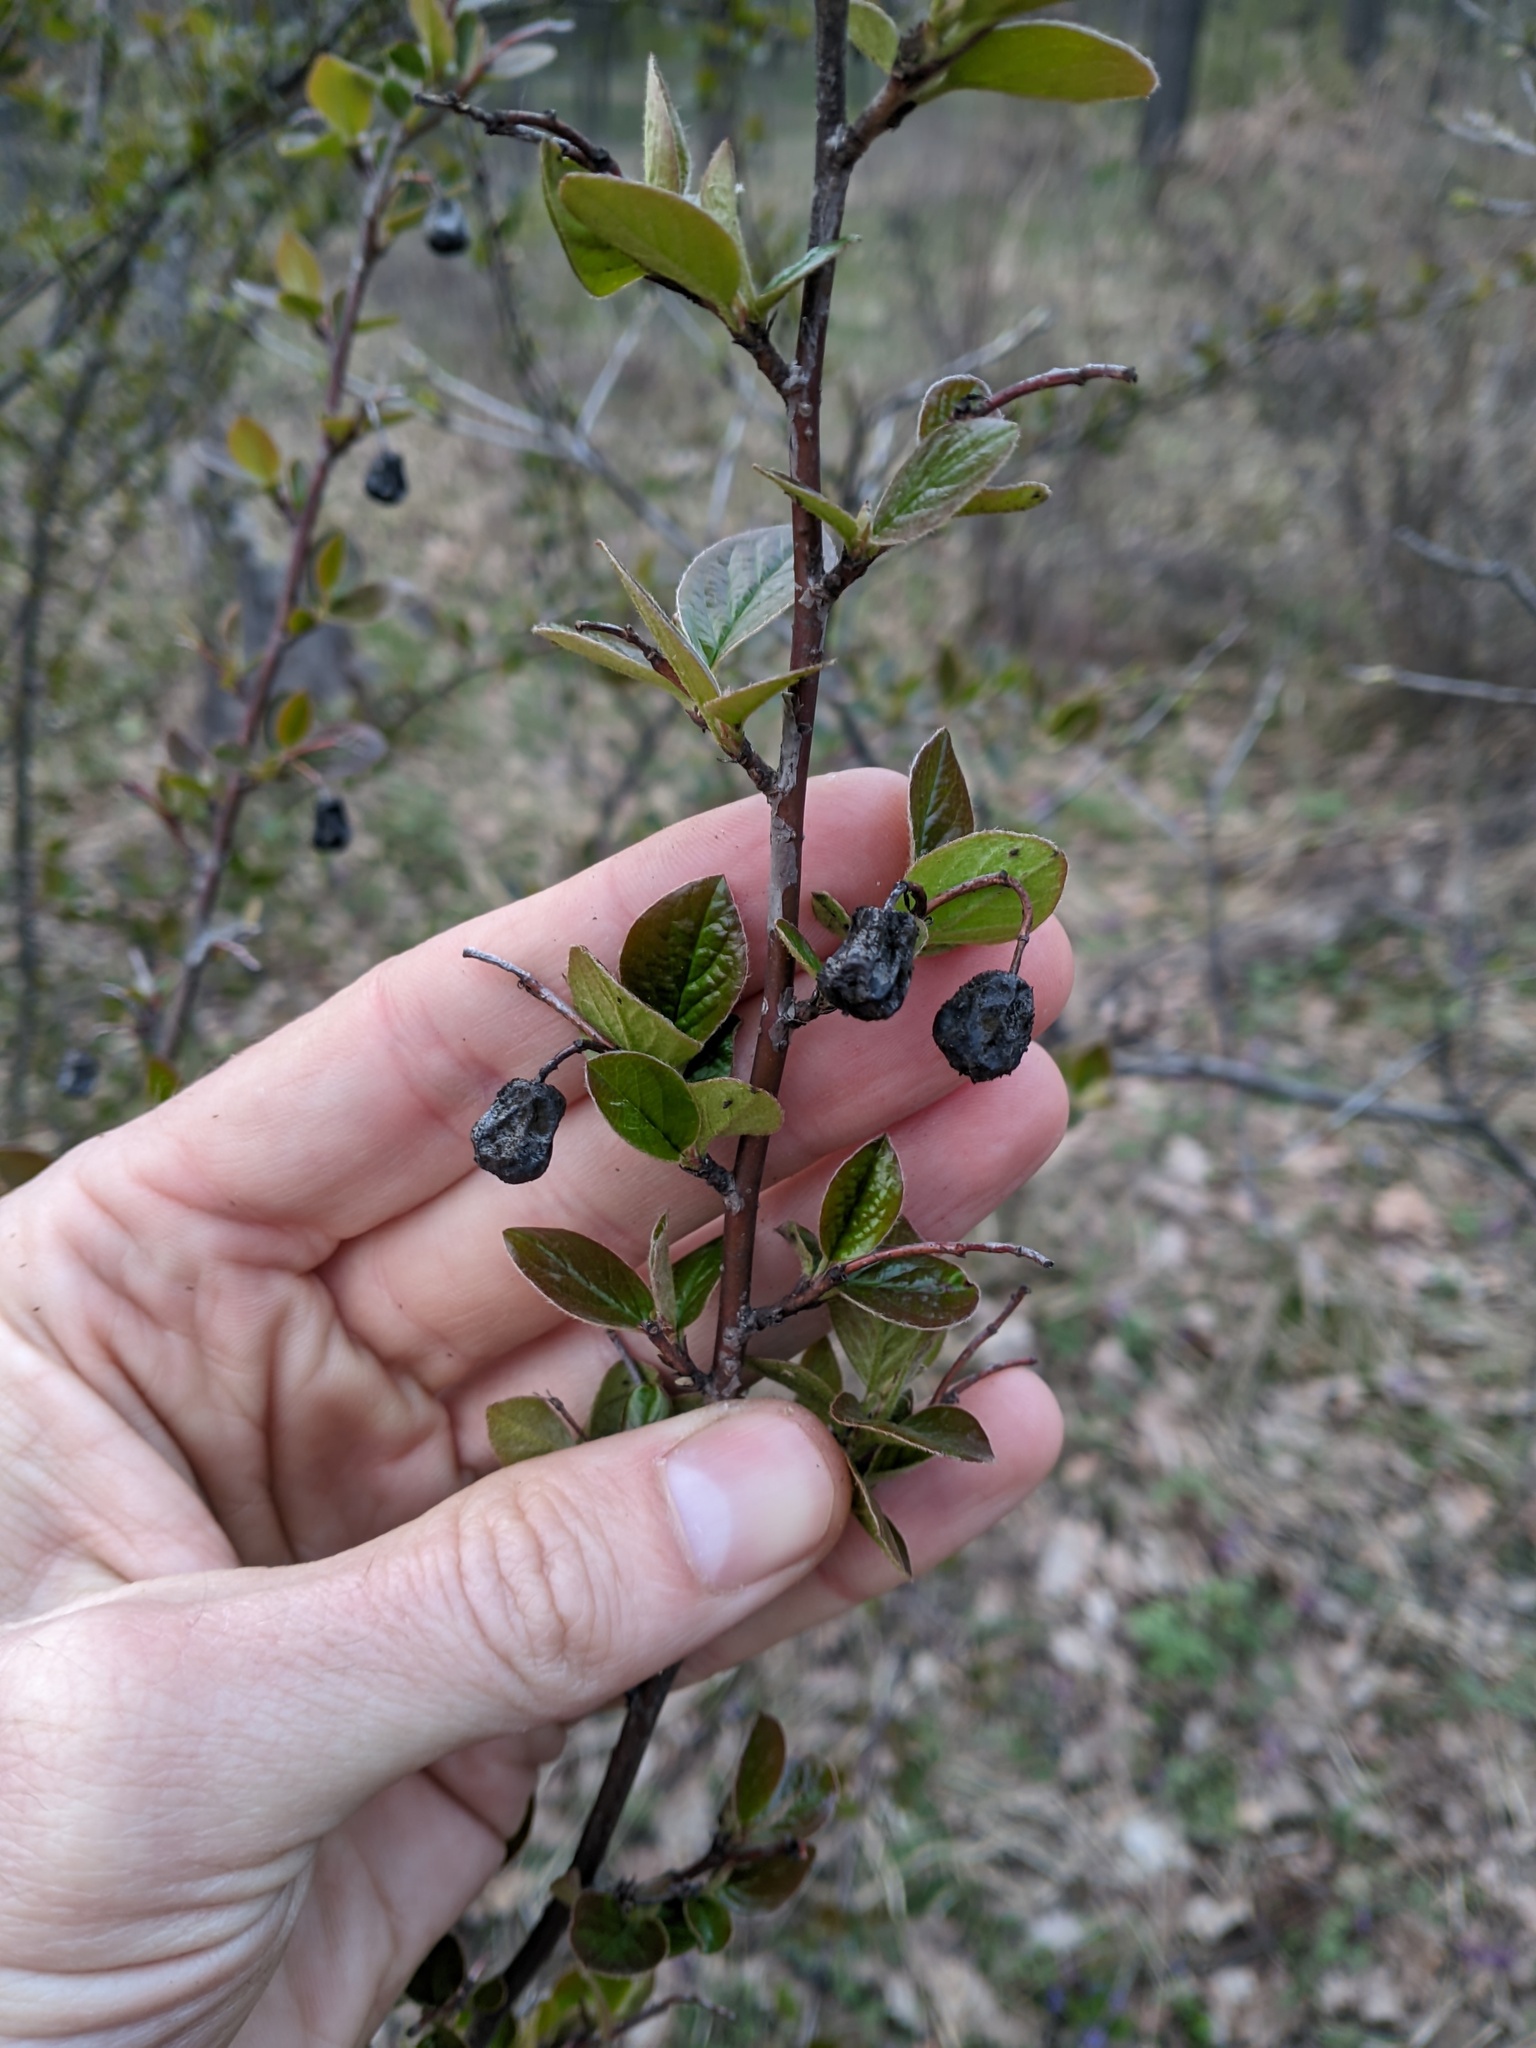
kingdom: Plantae
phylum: Tracheophyta
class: Magnoliopsida
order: Rosales
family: Rosaceae
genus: Cotoneaster
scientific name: Cotoneaster acutifolius
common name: Peking cotoneaster
